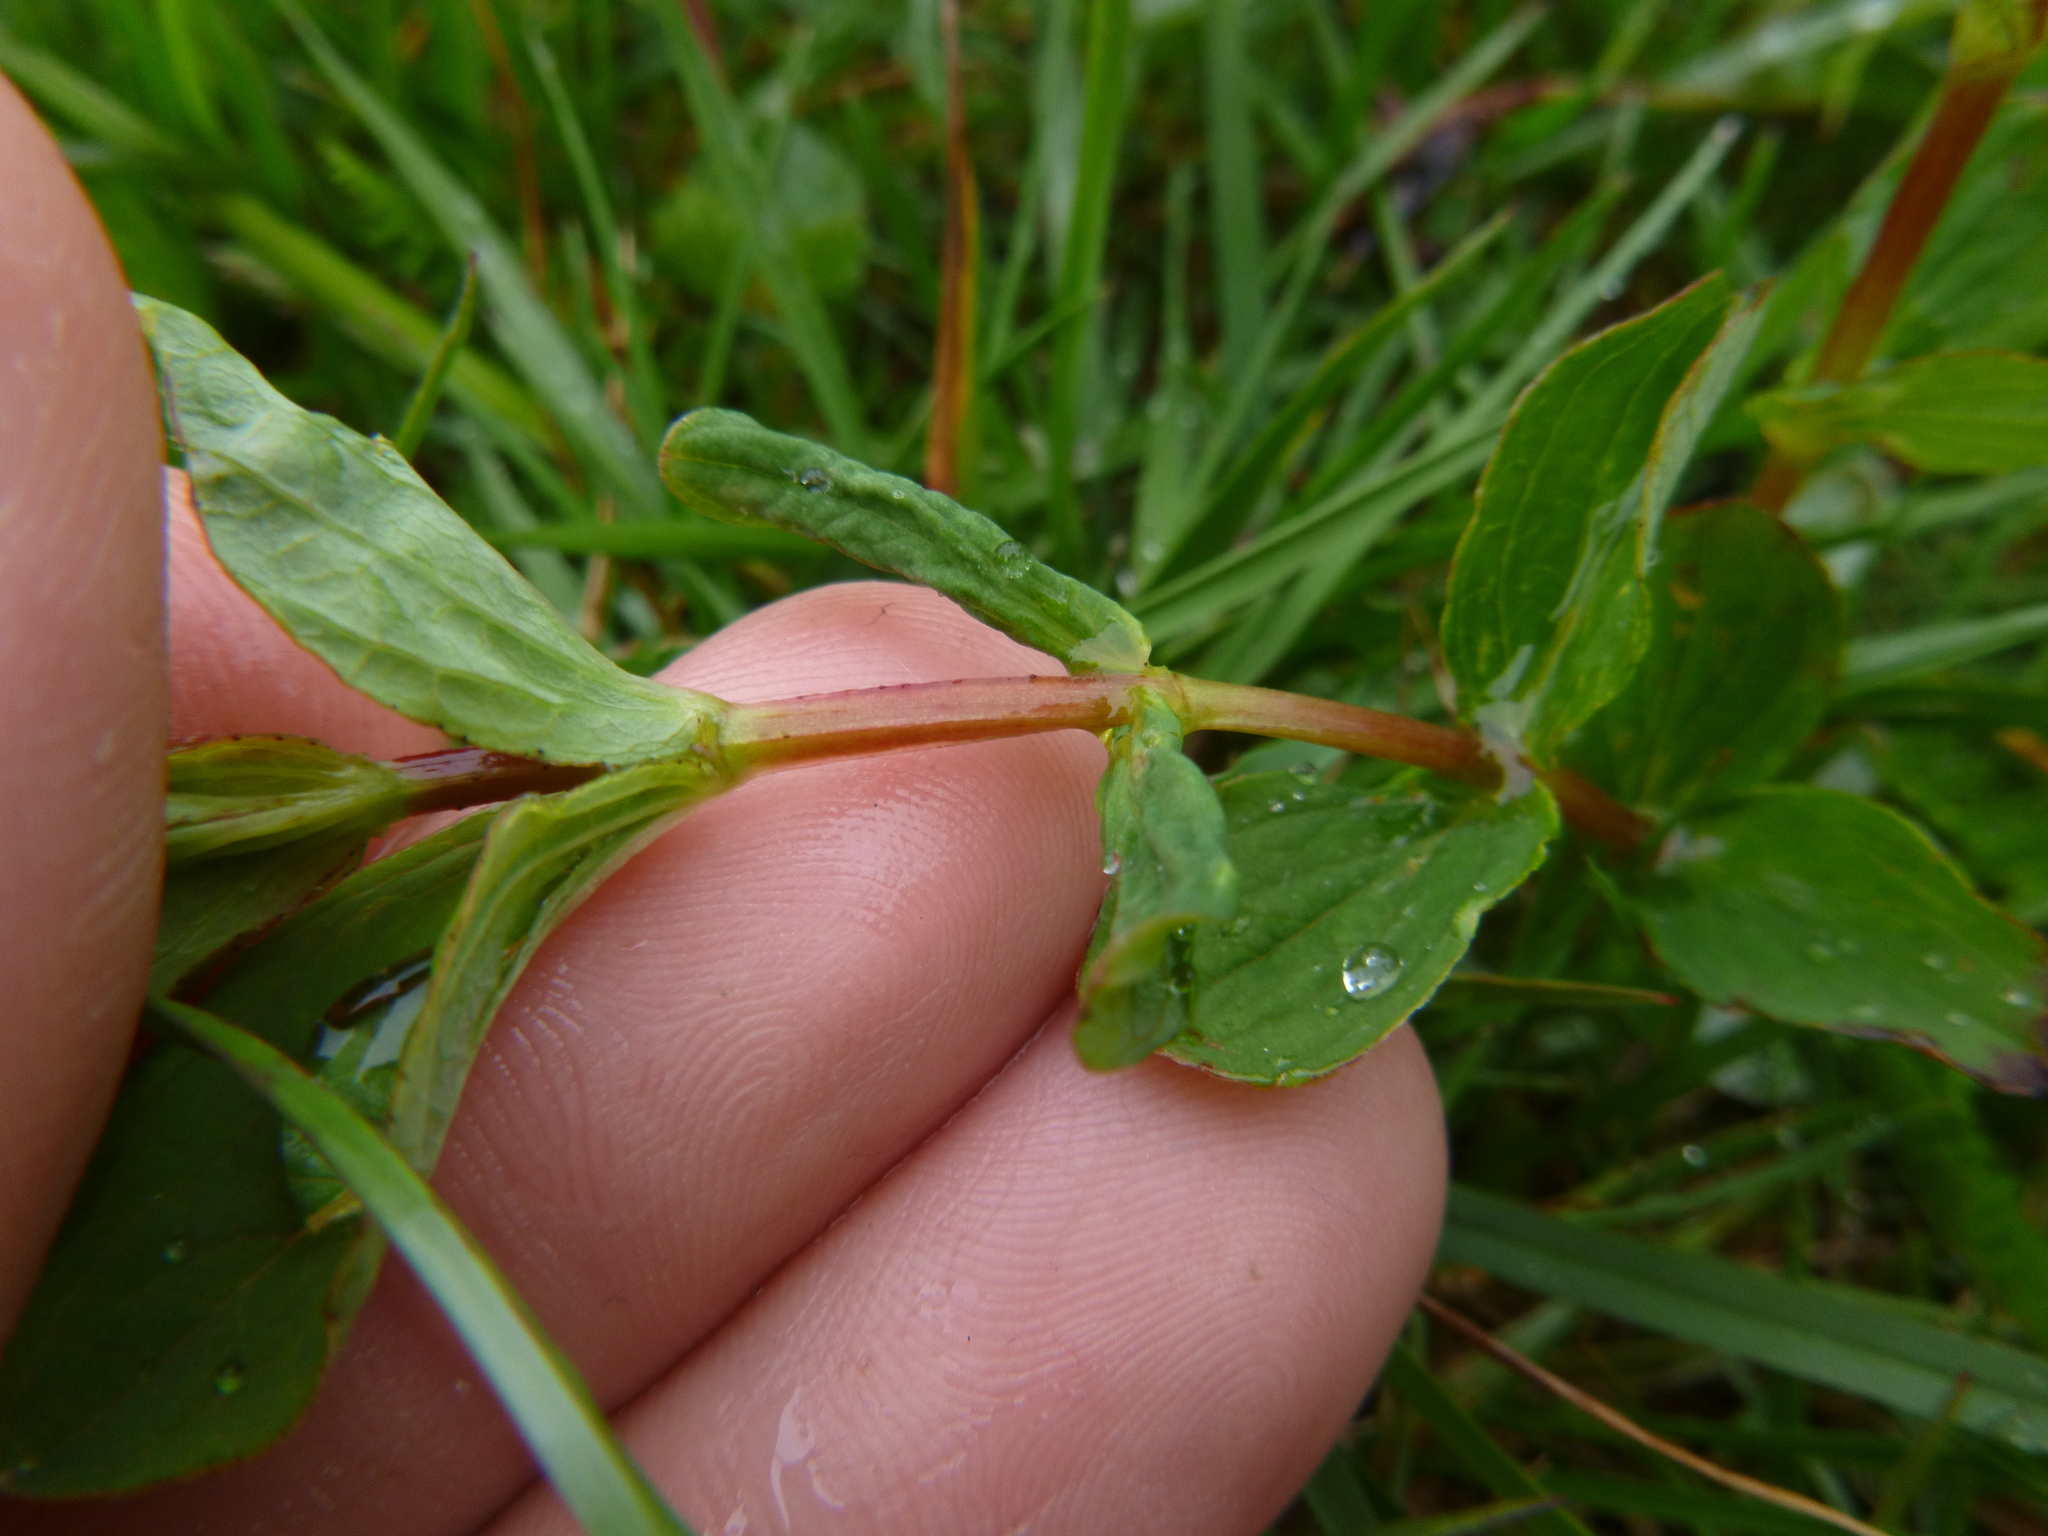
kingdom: Plantae
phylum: Tracheophyta
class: Magnoliopsida
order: Malpighiales
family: Hypericaceae
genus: Hypericum
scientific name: Hypericum maculatum
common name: Imperforate st. john's-wort
